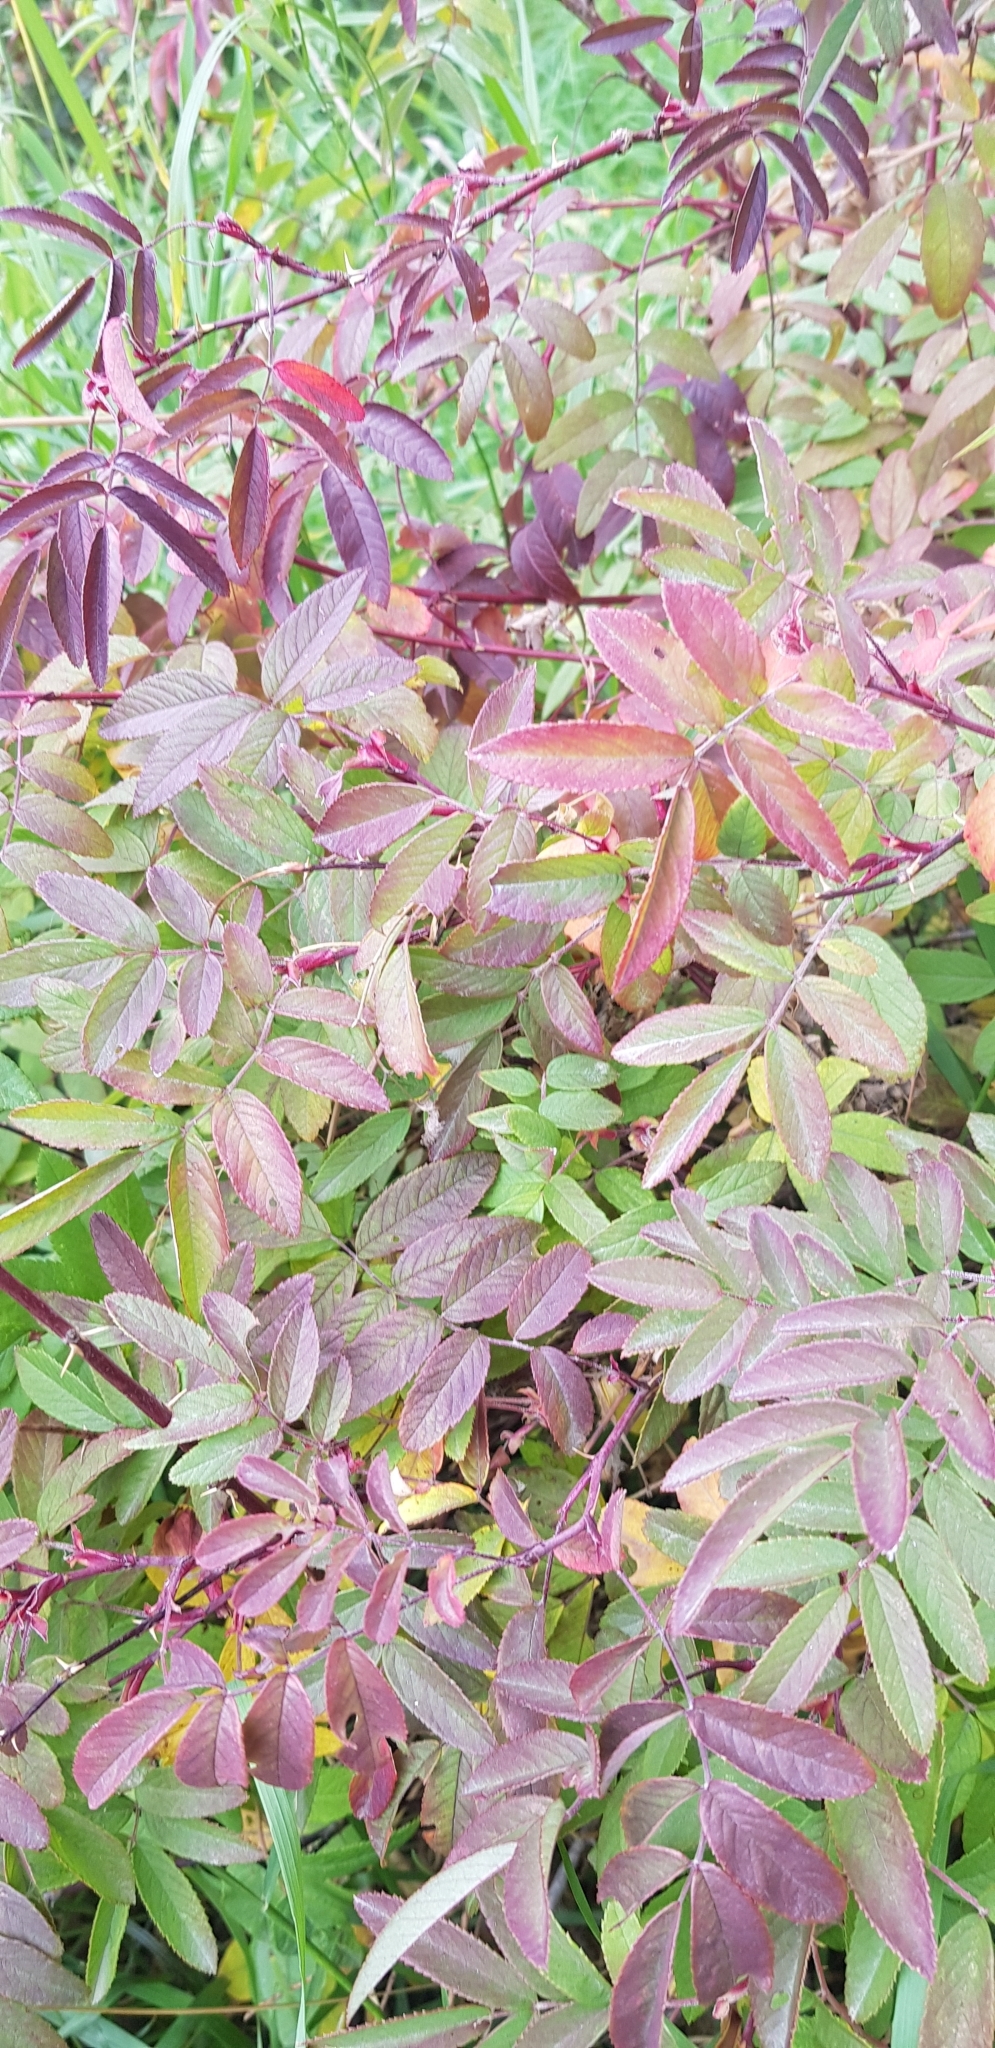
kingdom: Plantae
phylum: Tracheophyta
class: Magnoliopsida
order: Rosales
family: Rosaceae
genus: Rosa
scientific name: Rosa acicularis
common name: Prickly rose
